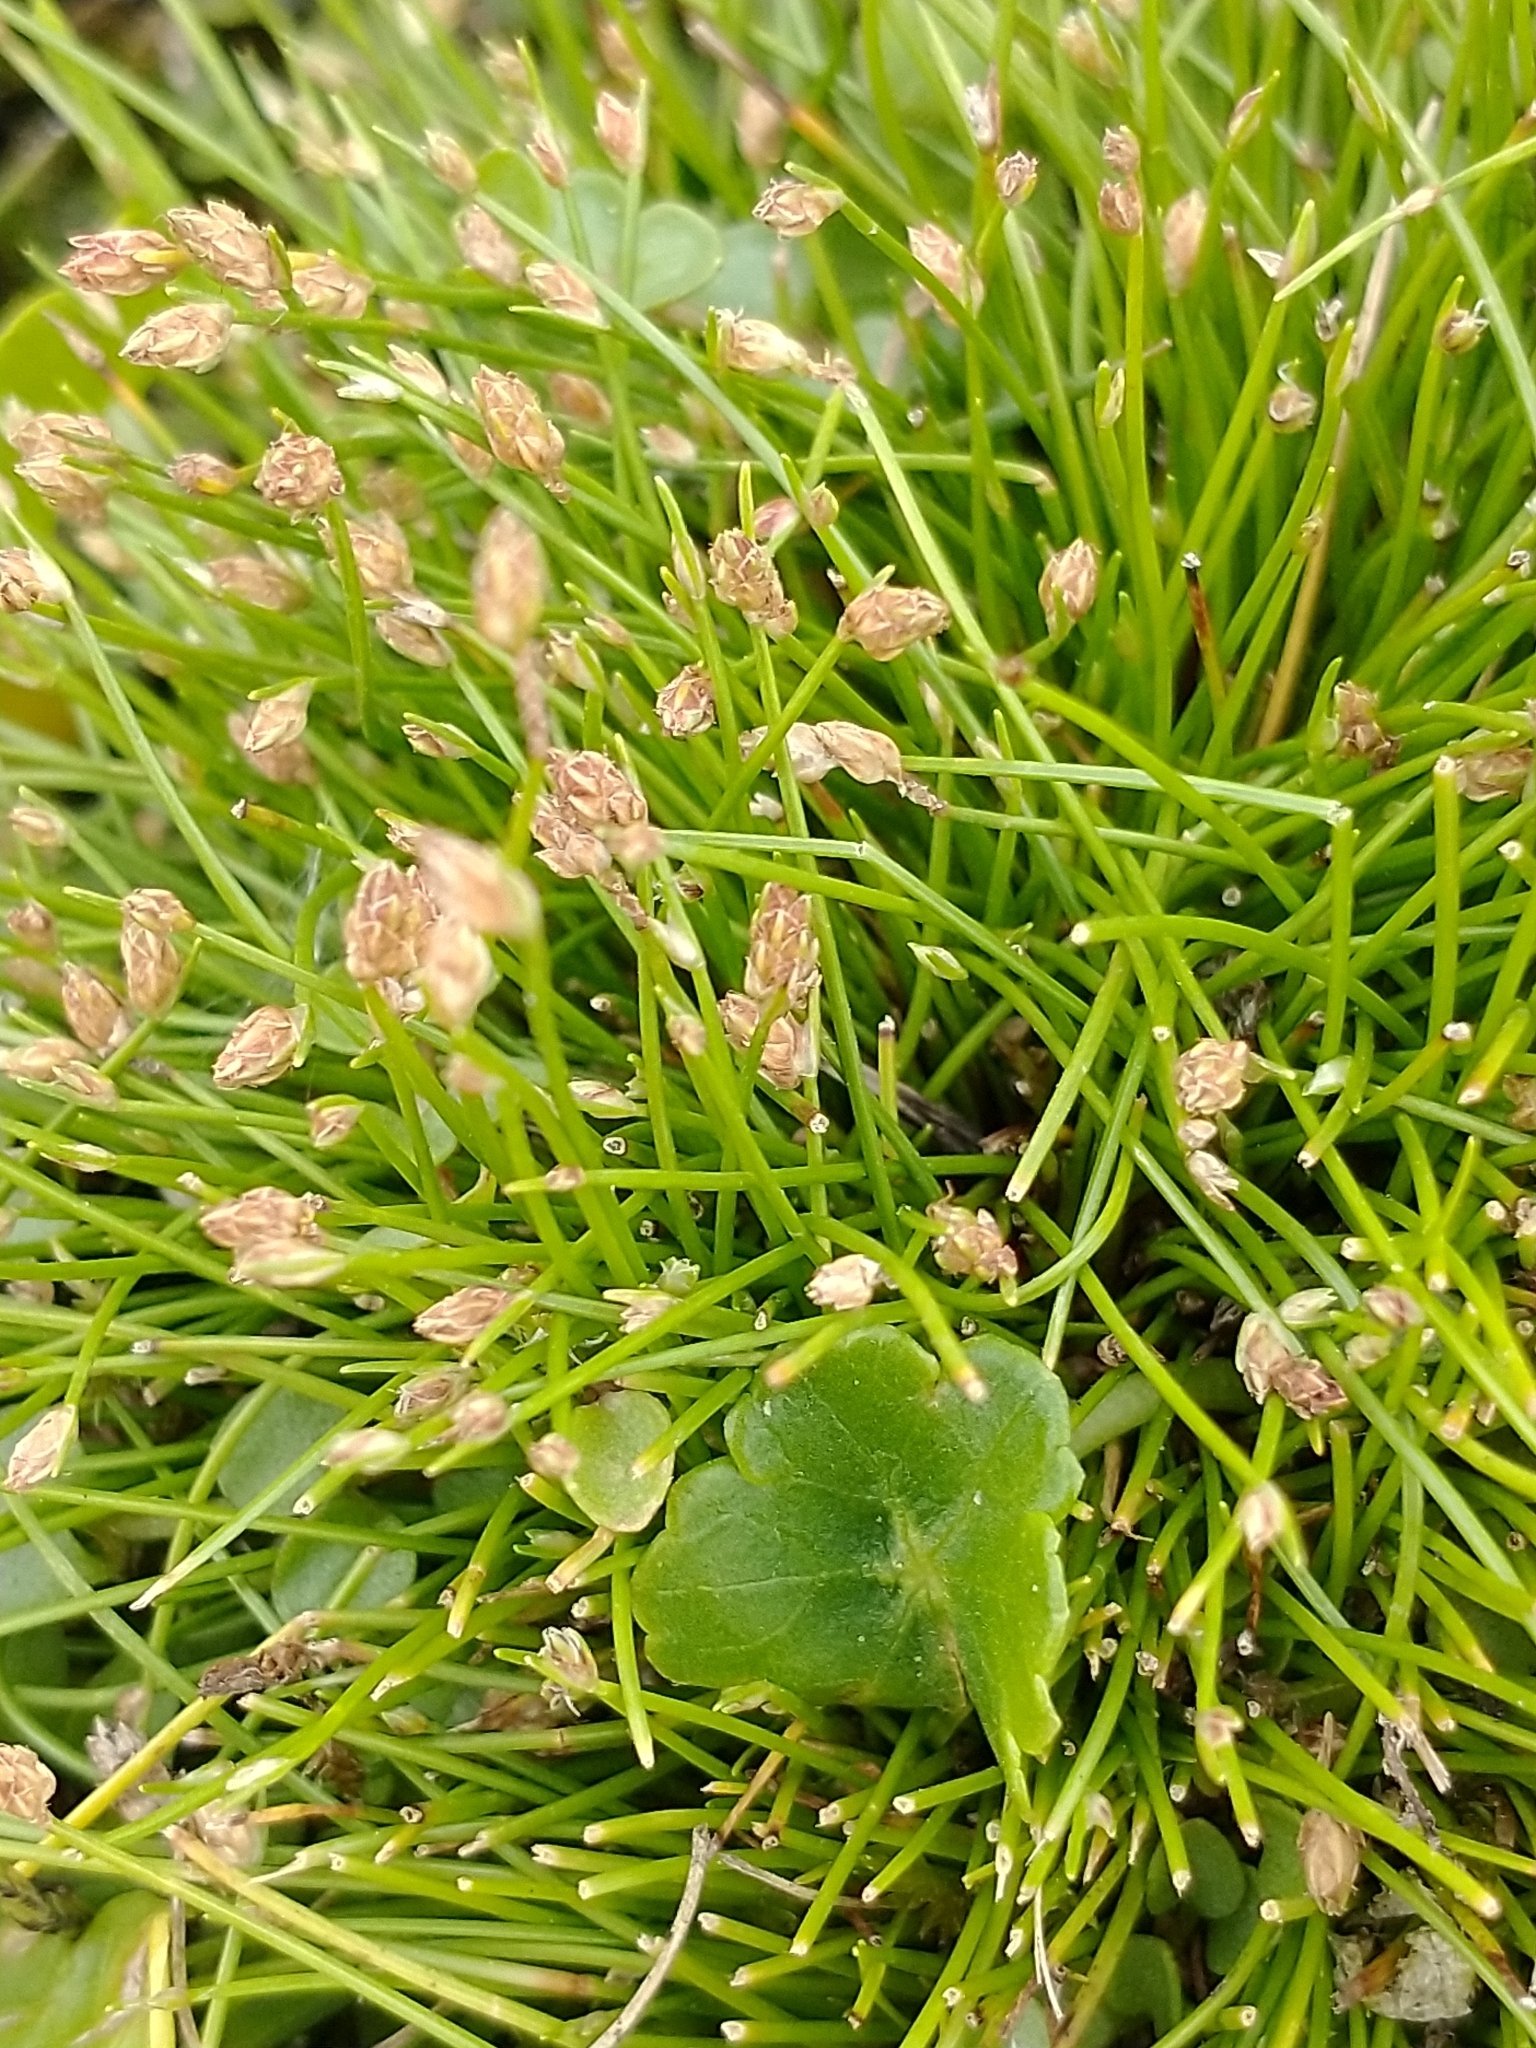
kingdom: Plantae
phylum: Tracheophyta
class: Liliopsida
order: Poales
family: Cyperaceae
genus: Isolepis
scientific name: Isolepis cernua
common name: Slender club-rush
